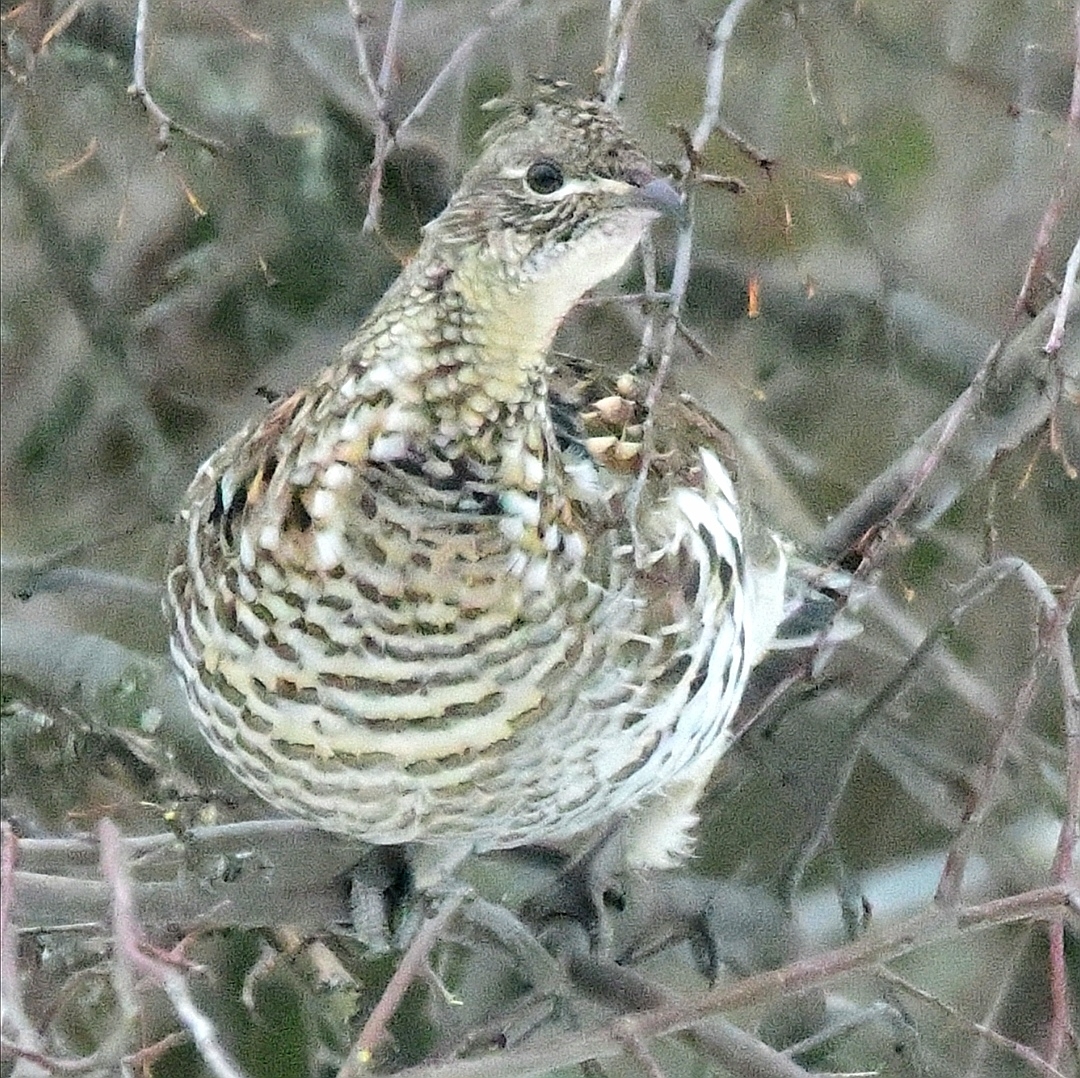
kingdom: Animalia
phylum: Chordata
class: Aves
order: Galliformes
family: Phasianidae
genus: Bonasa
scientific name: Bonasa umbellus
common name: Ruffed grouse
